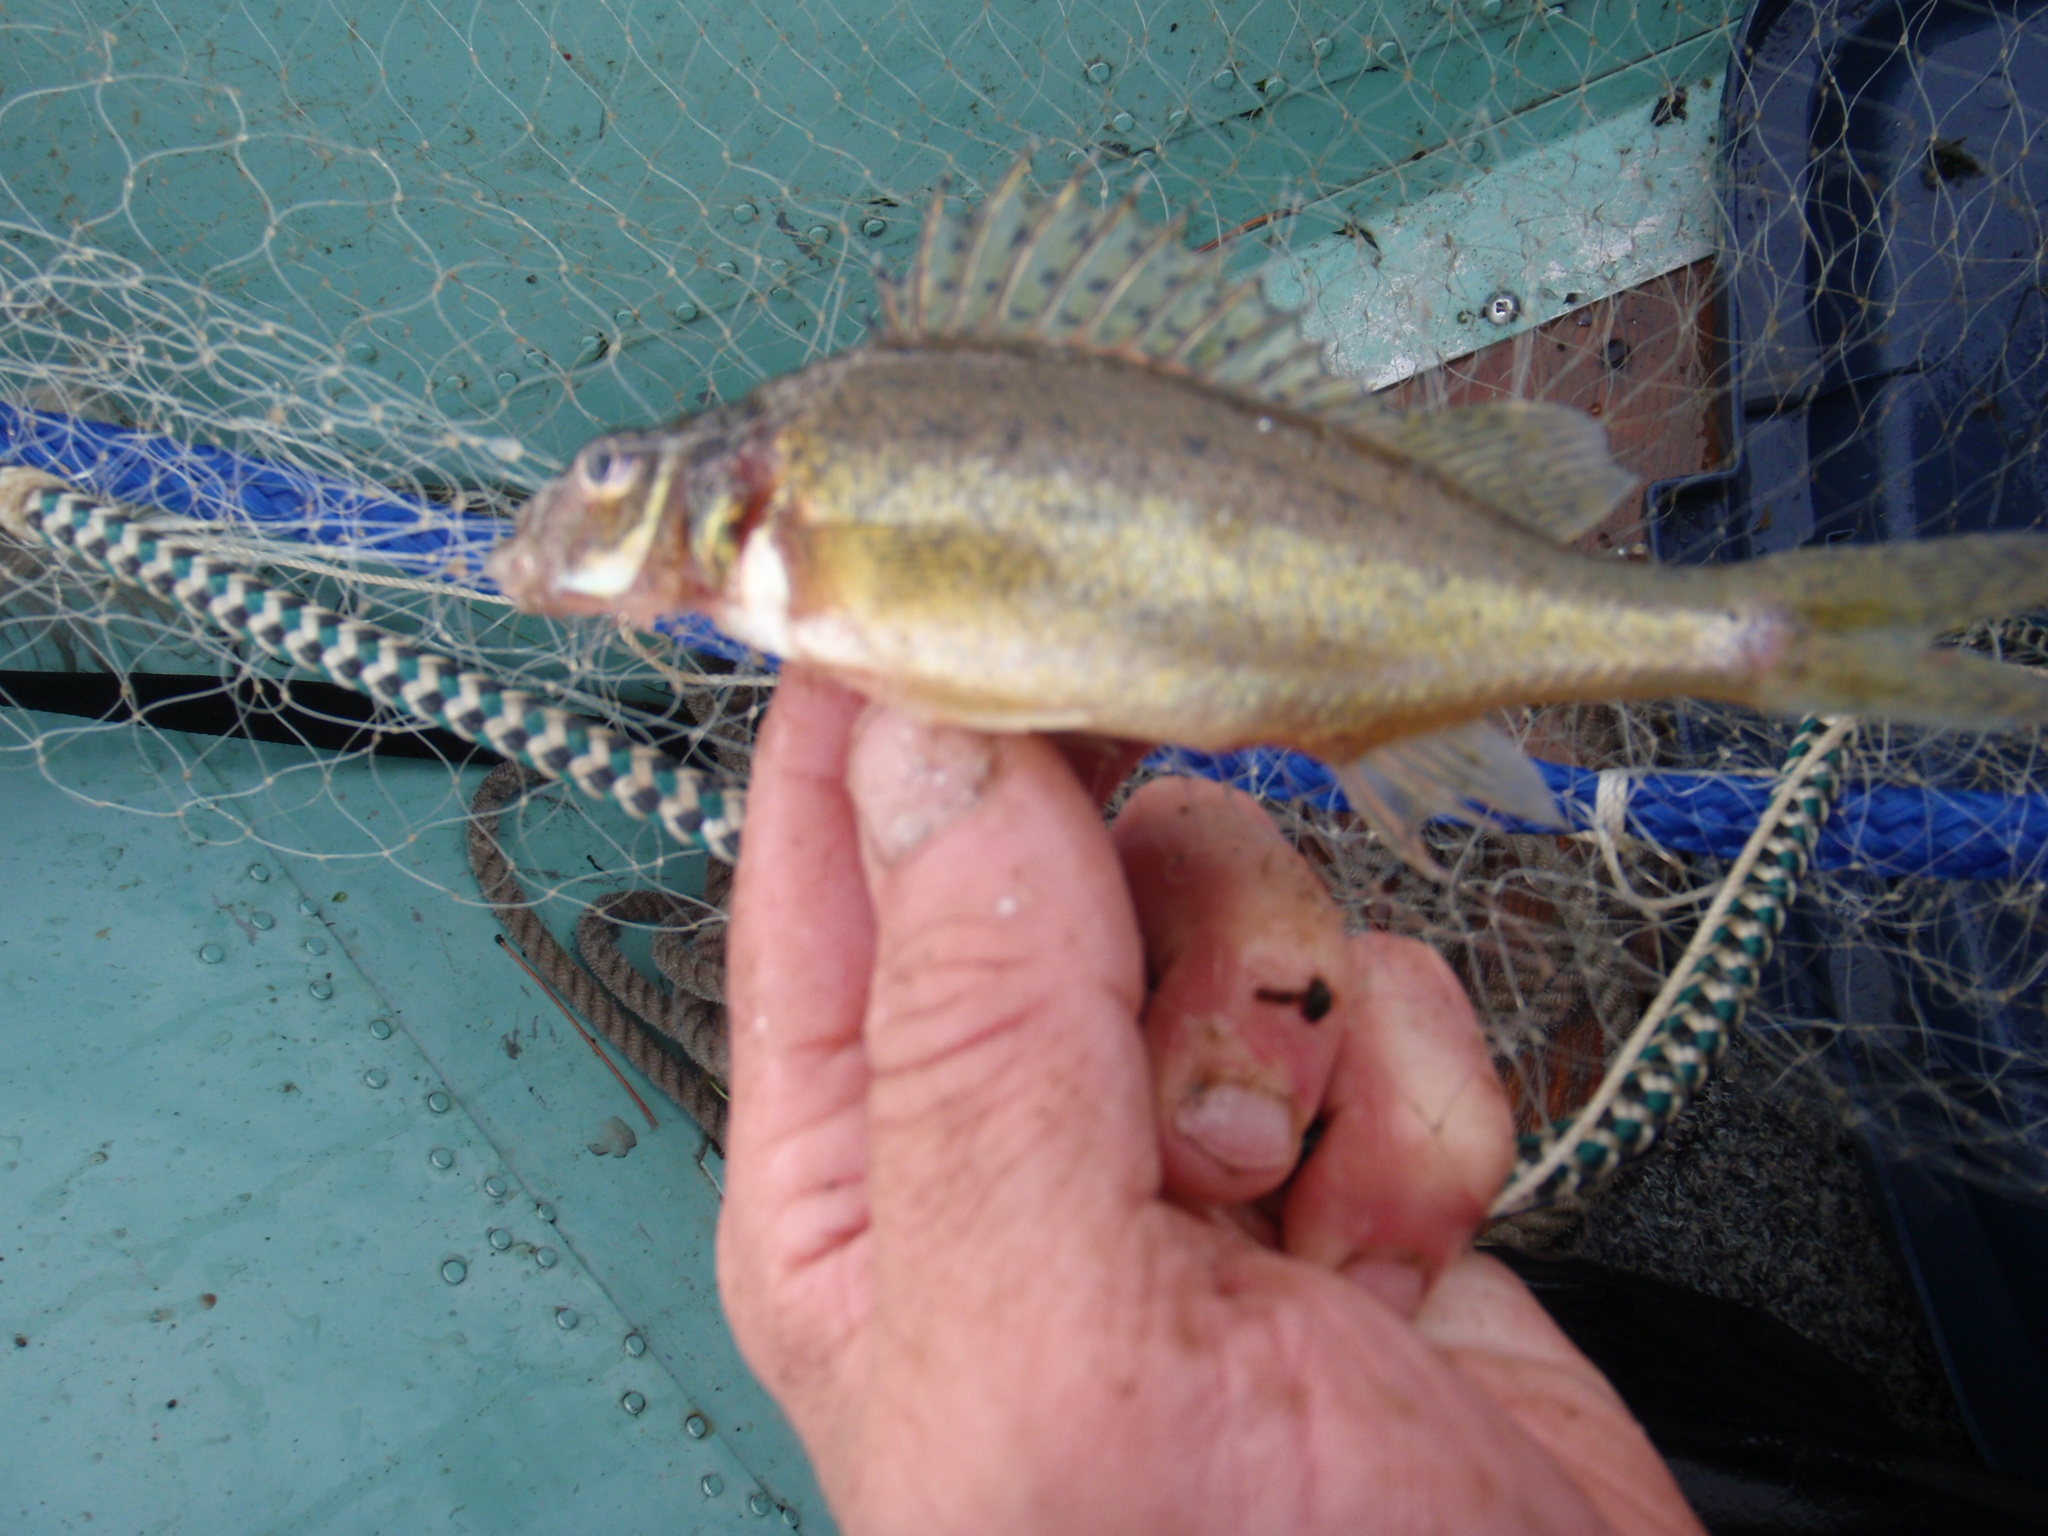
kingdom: Animalia
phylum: Chordata
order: Perciformes
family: Percidae
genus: Gymnocephalus
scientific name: Gymnocephalus cernua
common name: Ruffe
